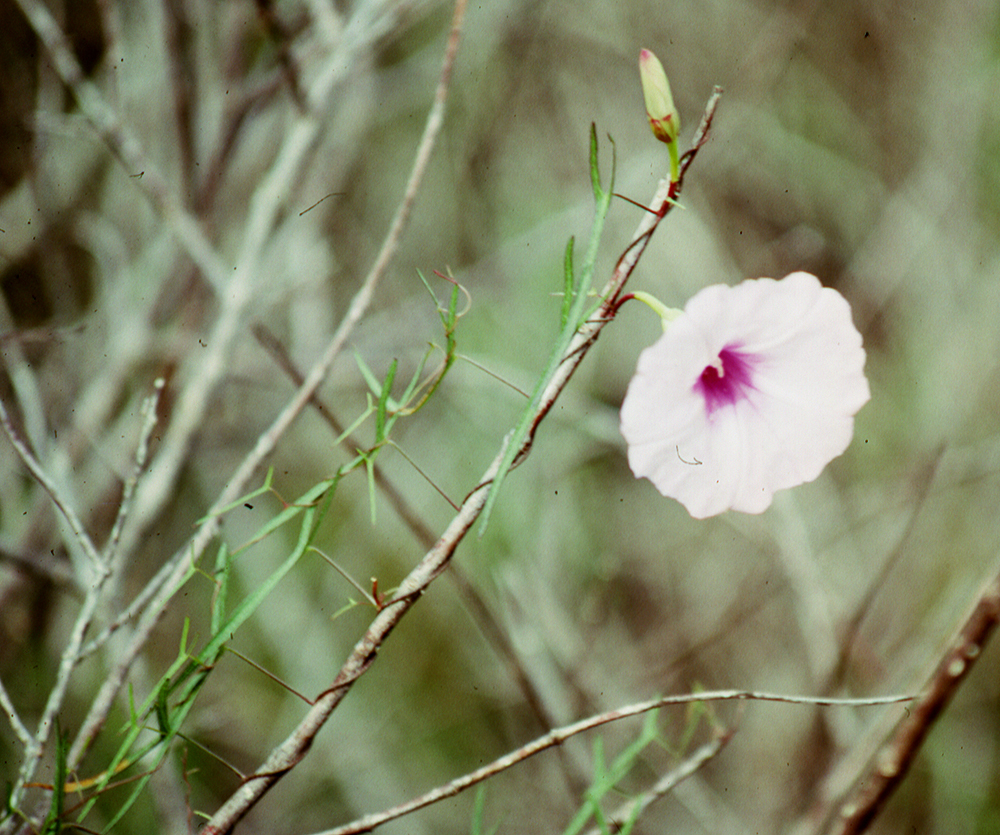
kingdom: Plantae
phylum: Tracheophyta
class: Magnoliopsida
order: Solanales
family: Convolvulaceae
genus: Ipomoea
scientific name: Ipomoea sagittata
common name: Saltmarsh morning glory
